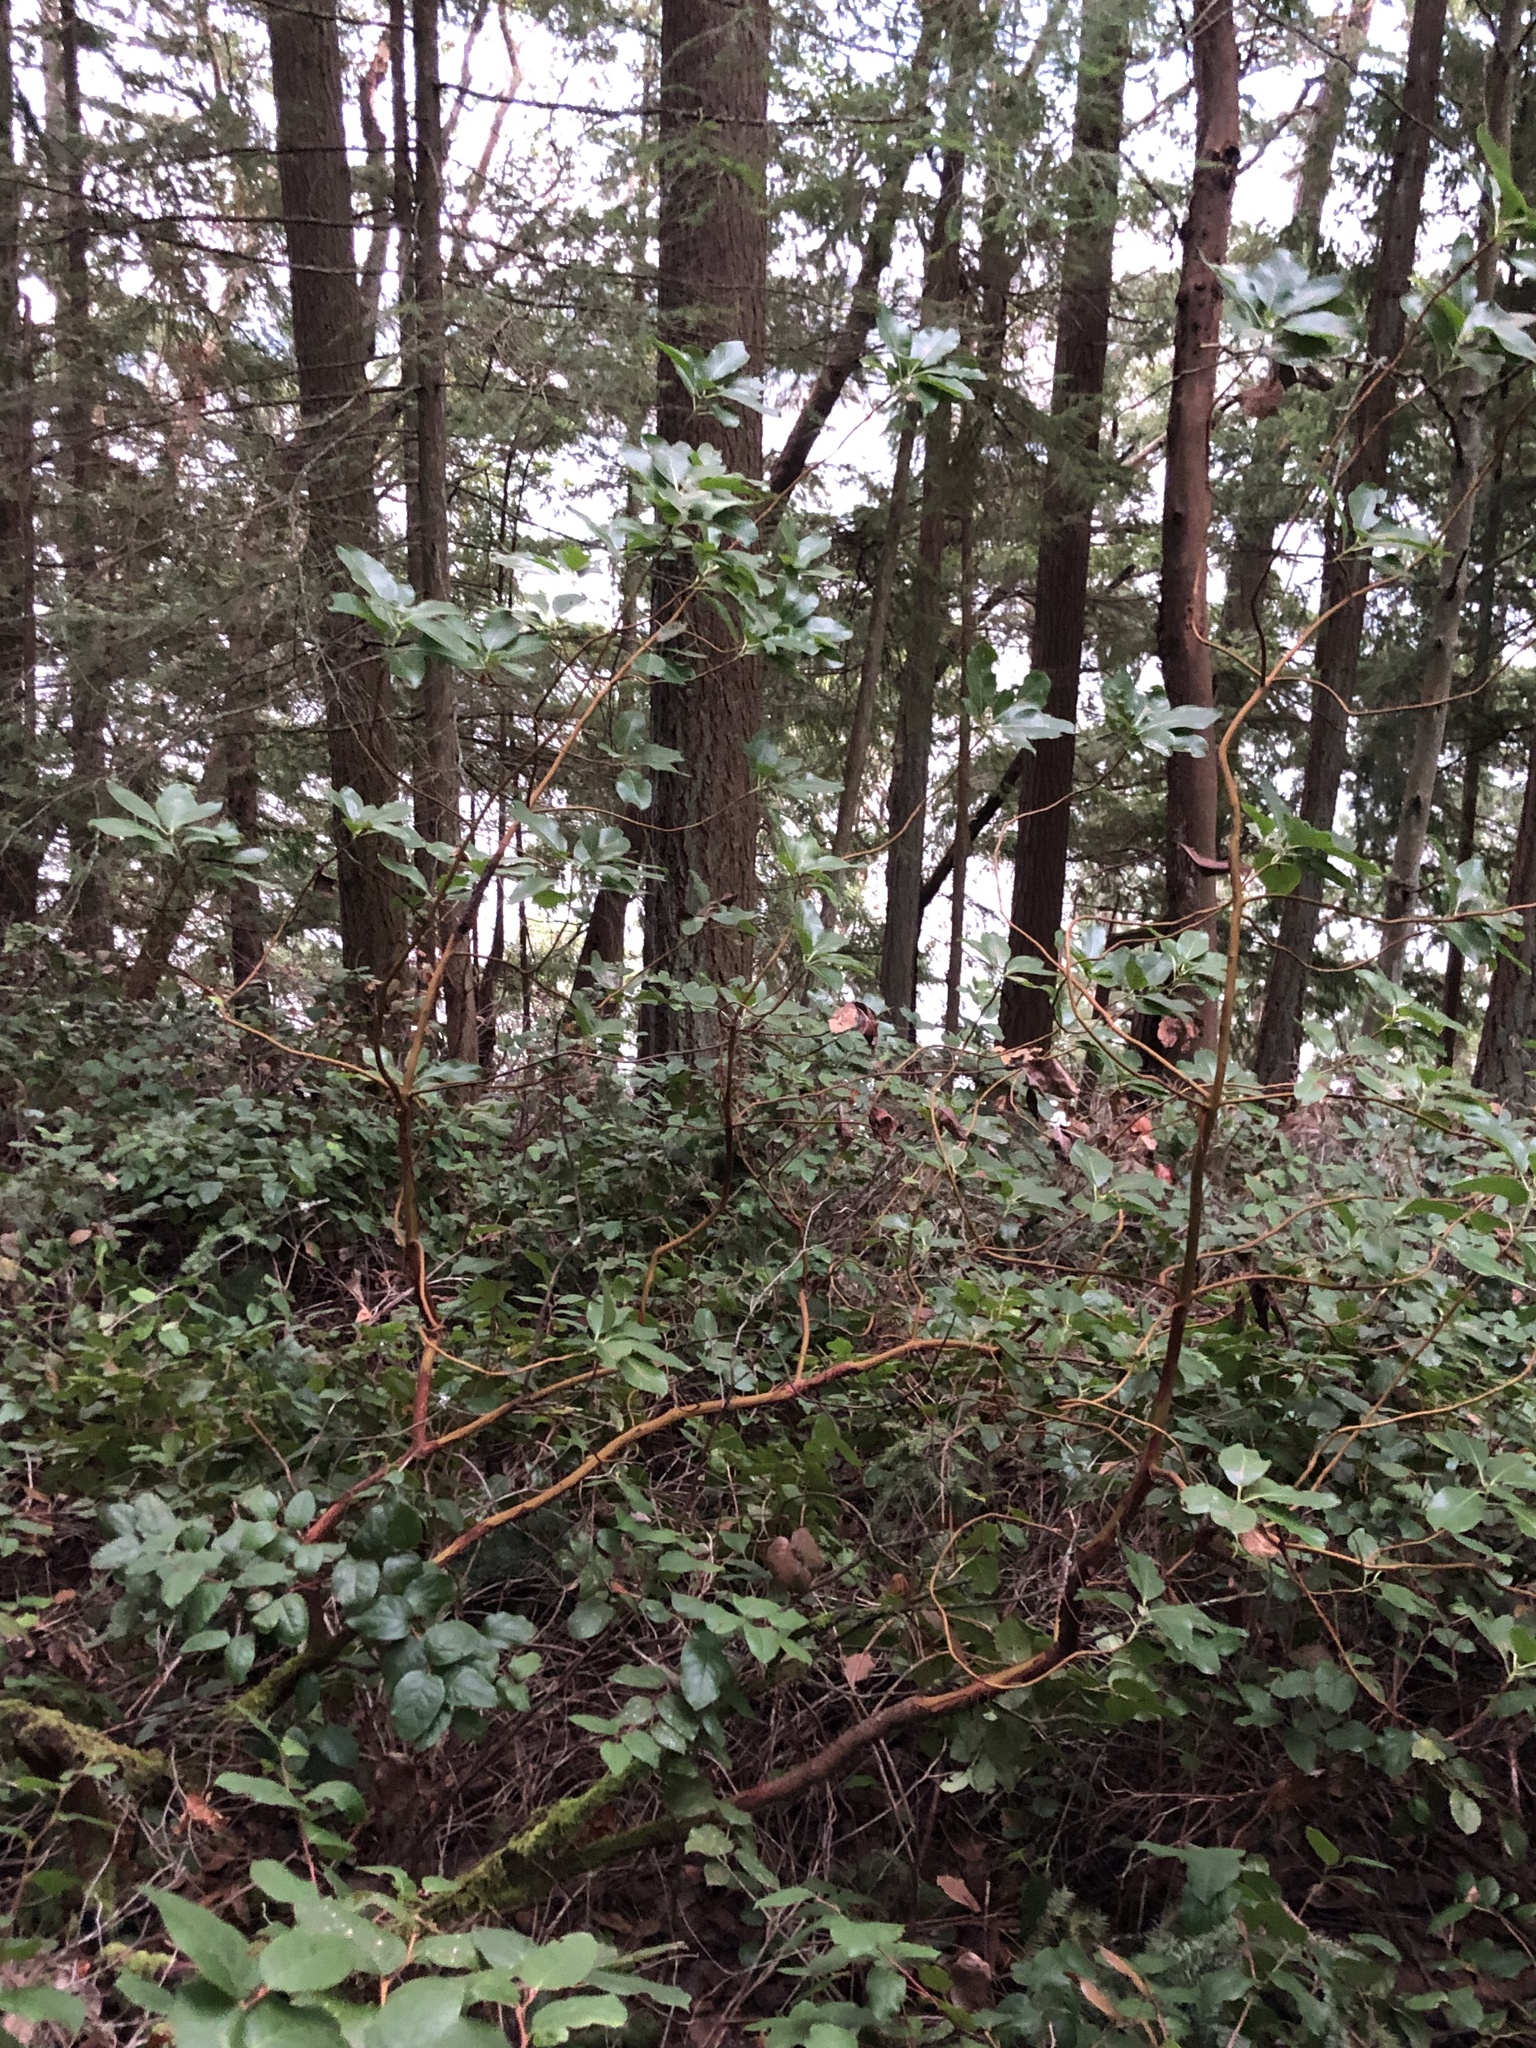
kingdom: Plantae
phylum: Tracheophyta
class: Magnoliopsida
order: Ericales
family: Ericaceae
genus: Arbutus
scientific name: Arbutus menziesii
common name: Pacific madrone
